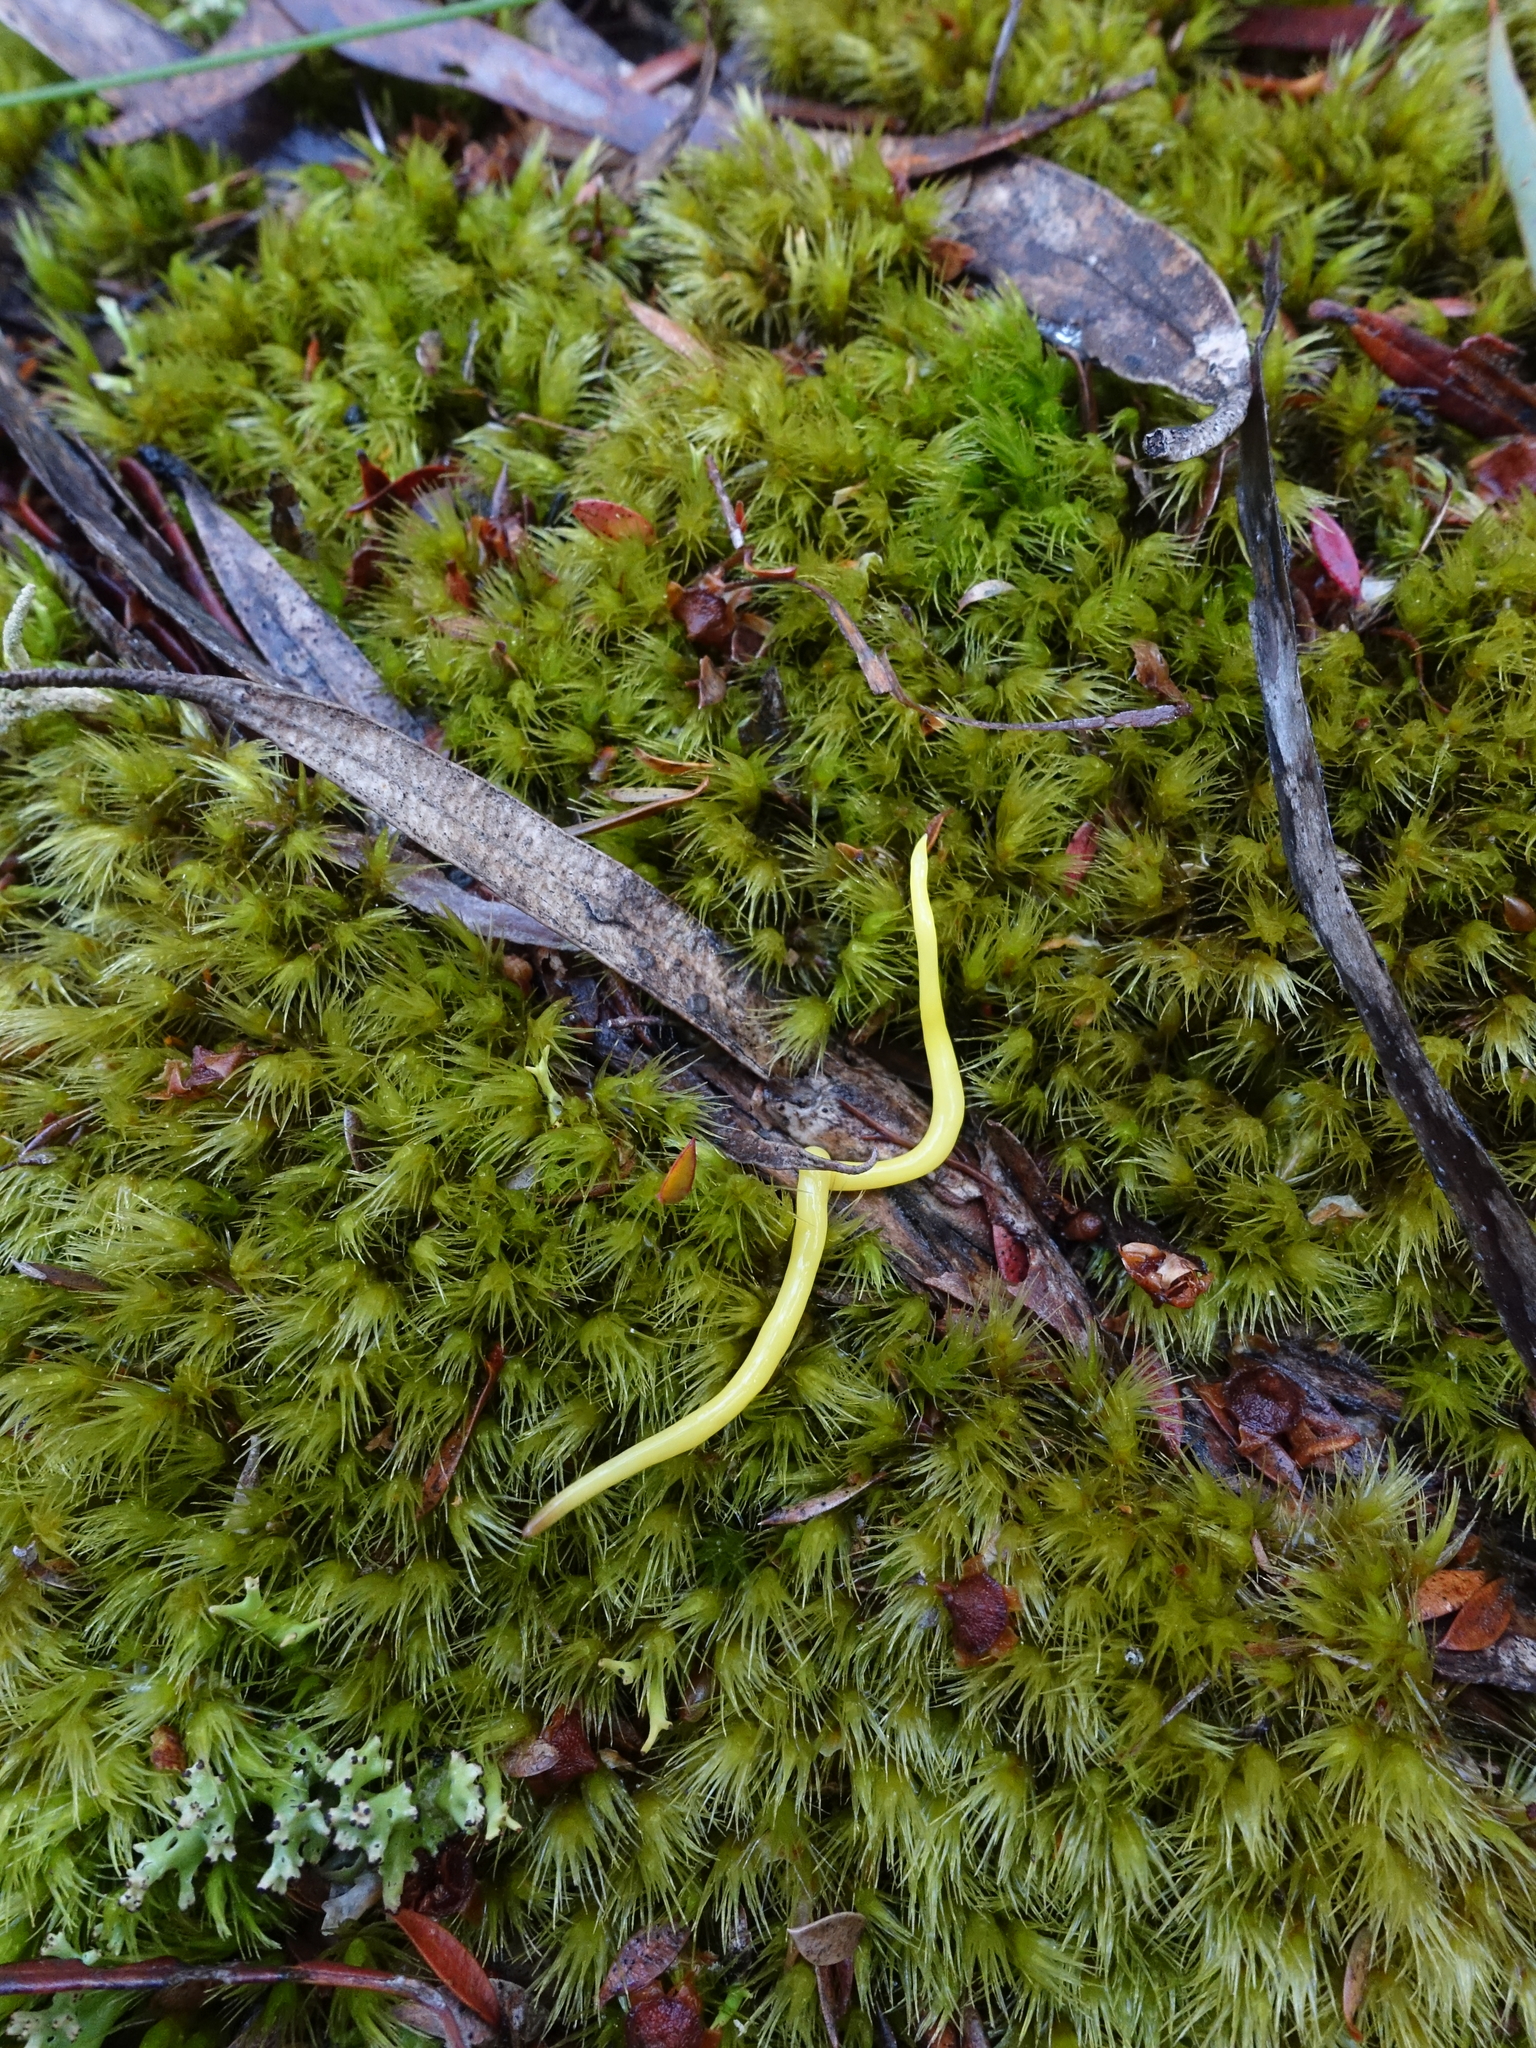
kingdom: Animalia
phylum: Platyhelminthes
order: Tricladida
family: Geoplanidae
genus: Fletchamia
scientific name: Fletchamia sugdeni
